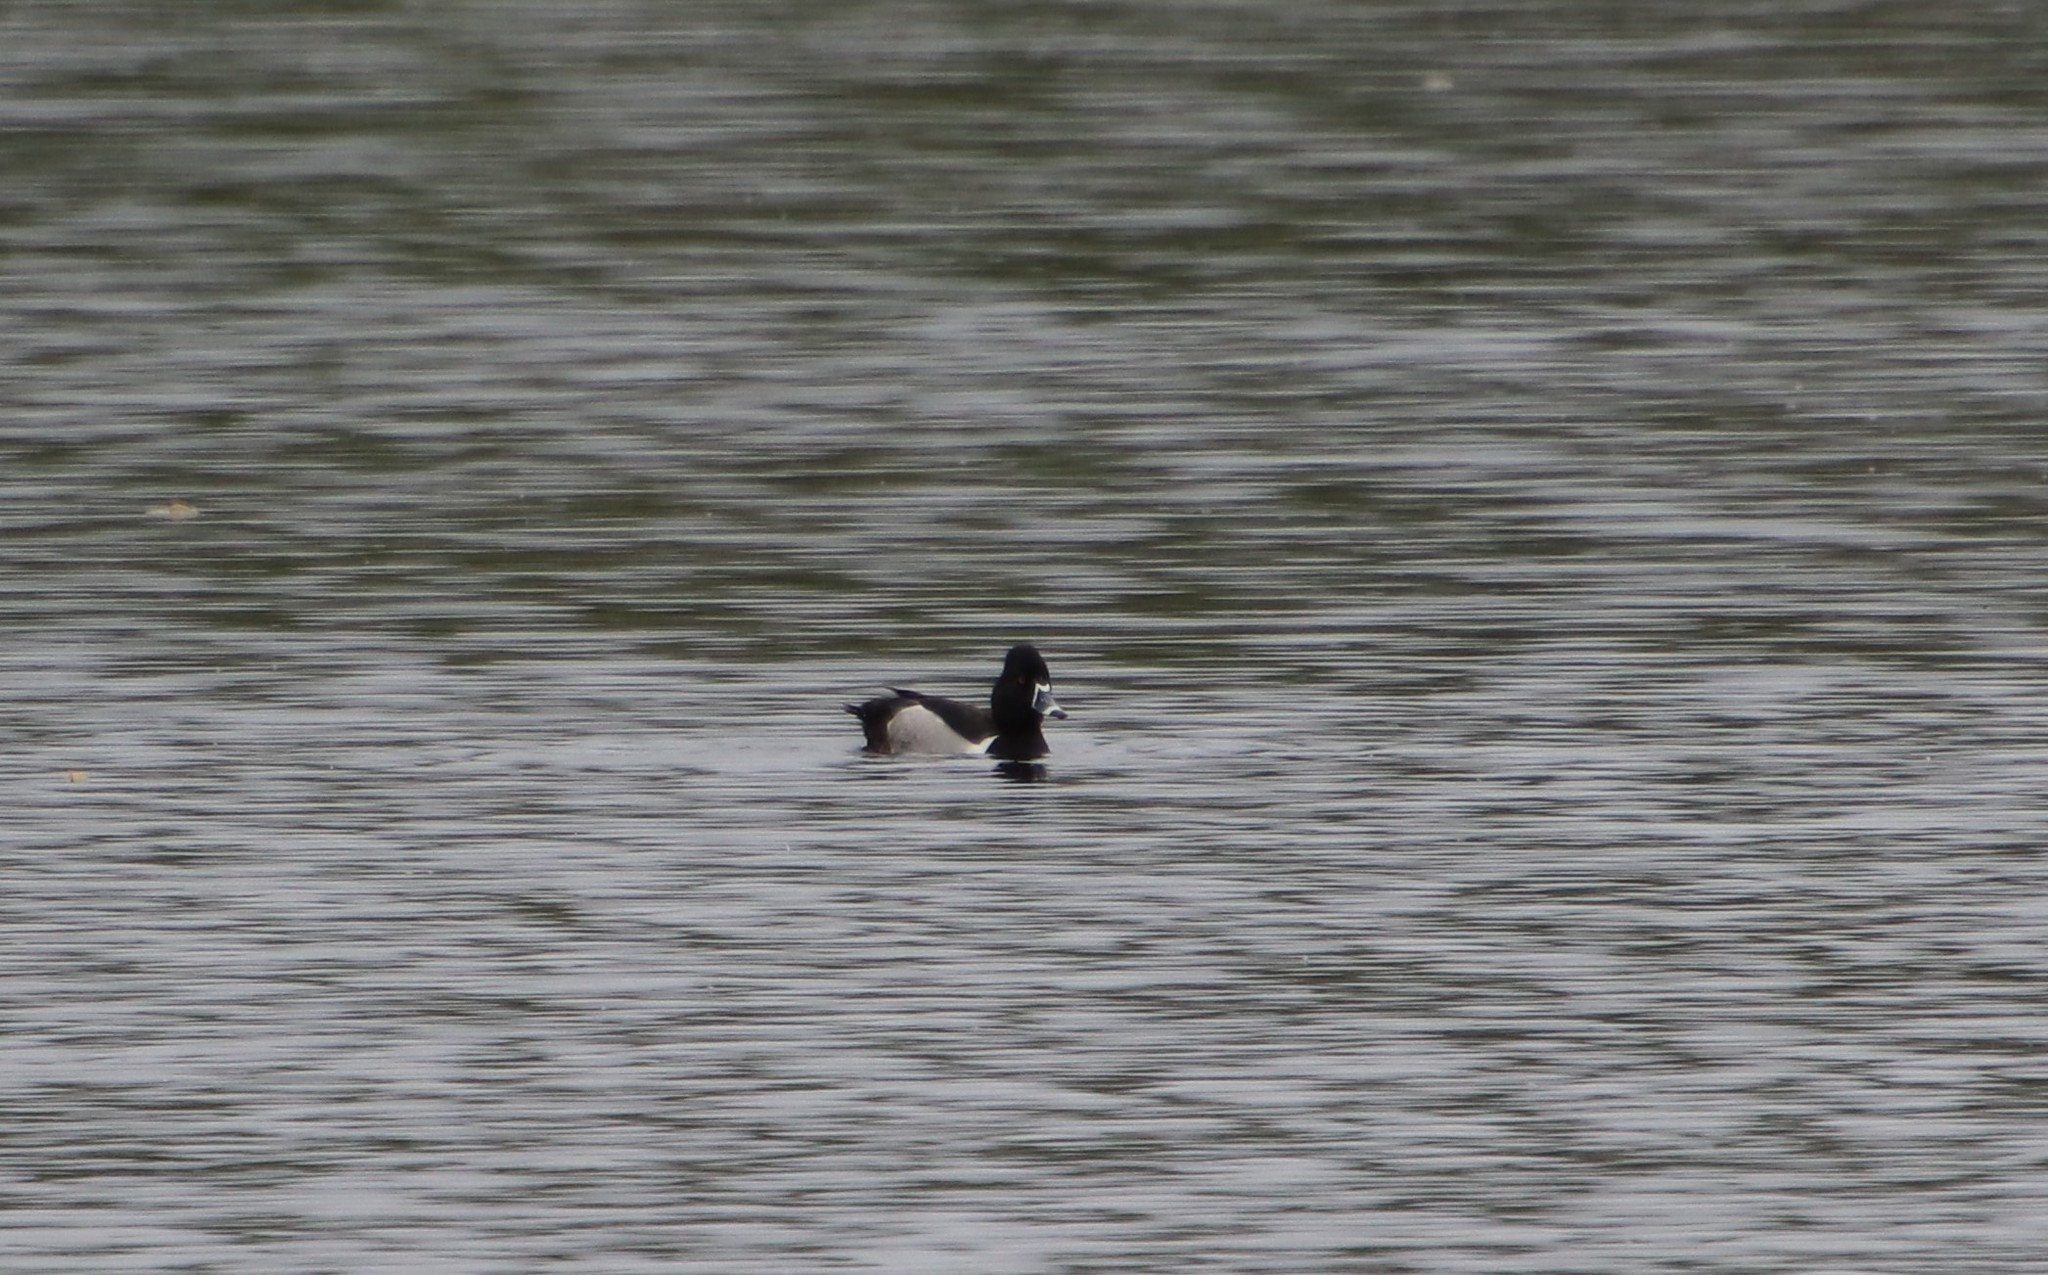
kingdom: Animalia
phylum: Chordata
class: Aves
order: Anseriformes
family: Anatidae
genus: Aythya
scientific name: Aythya collaris
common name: Ring-necked duck
